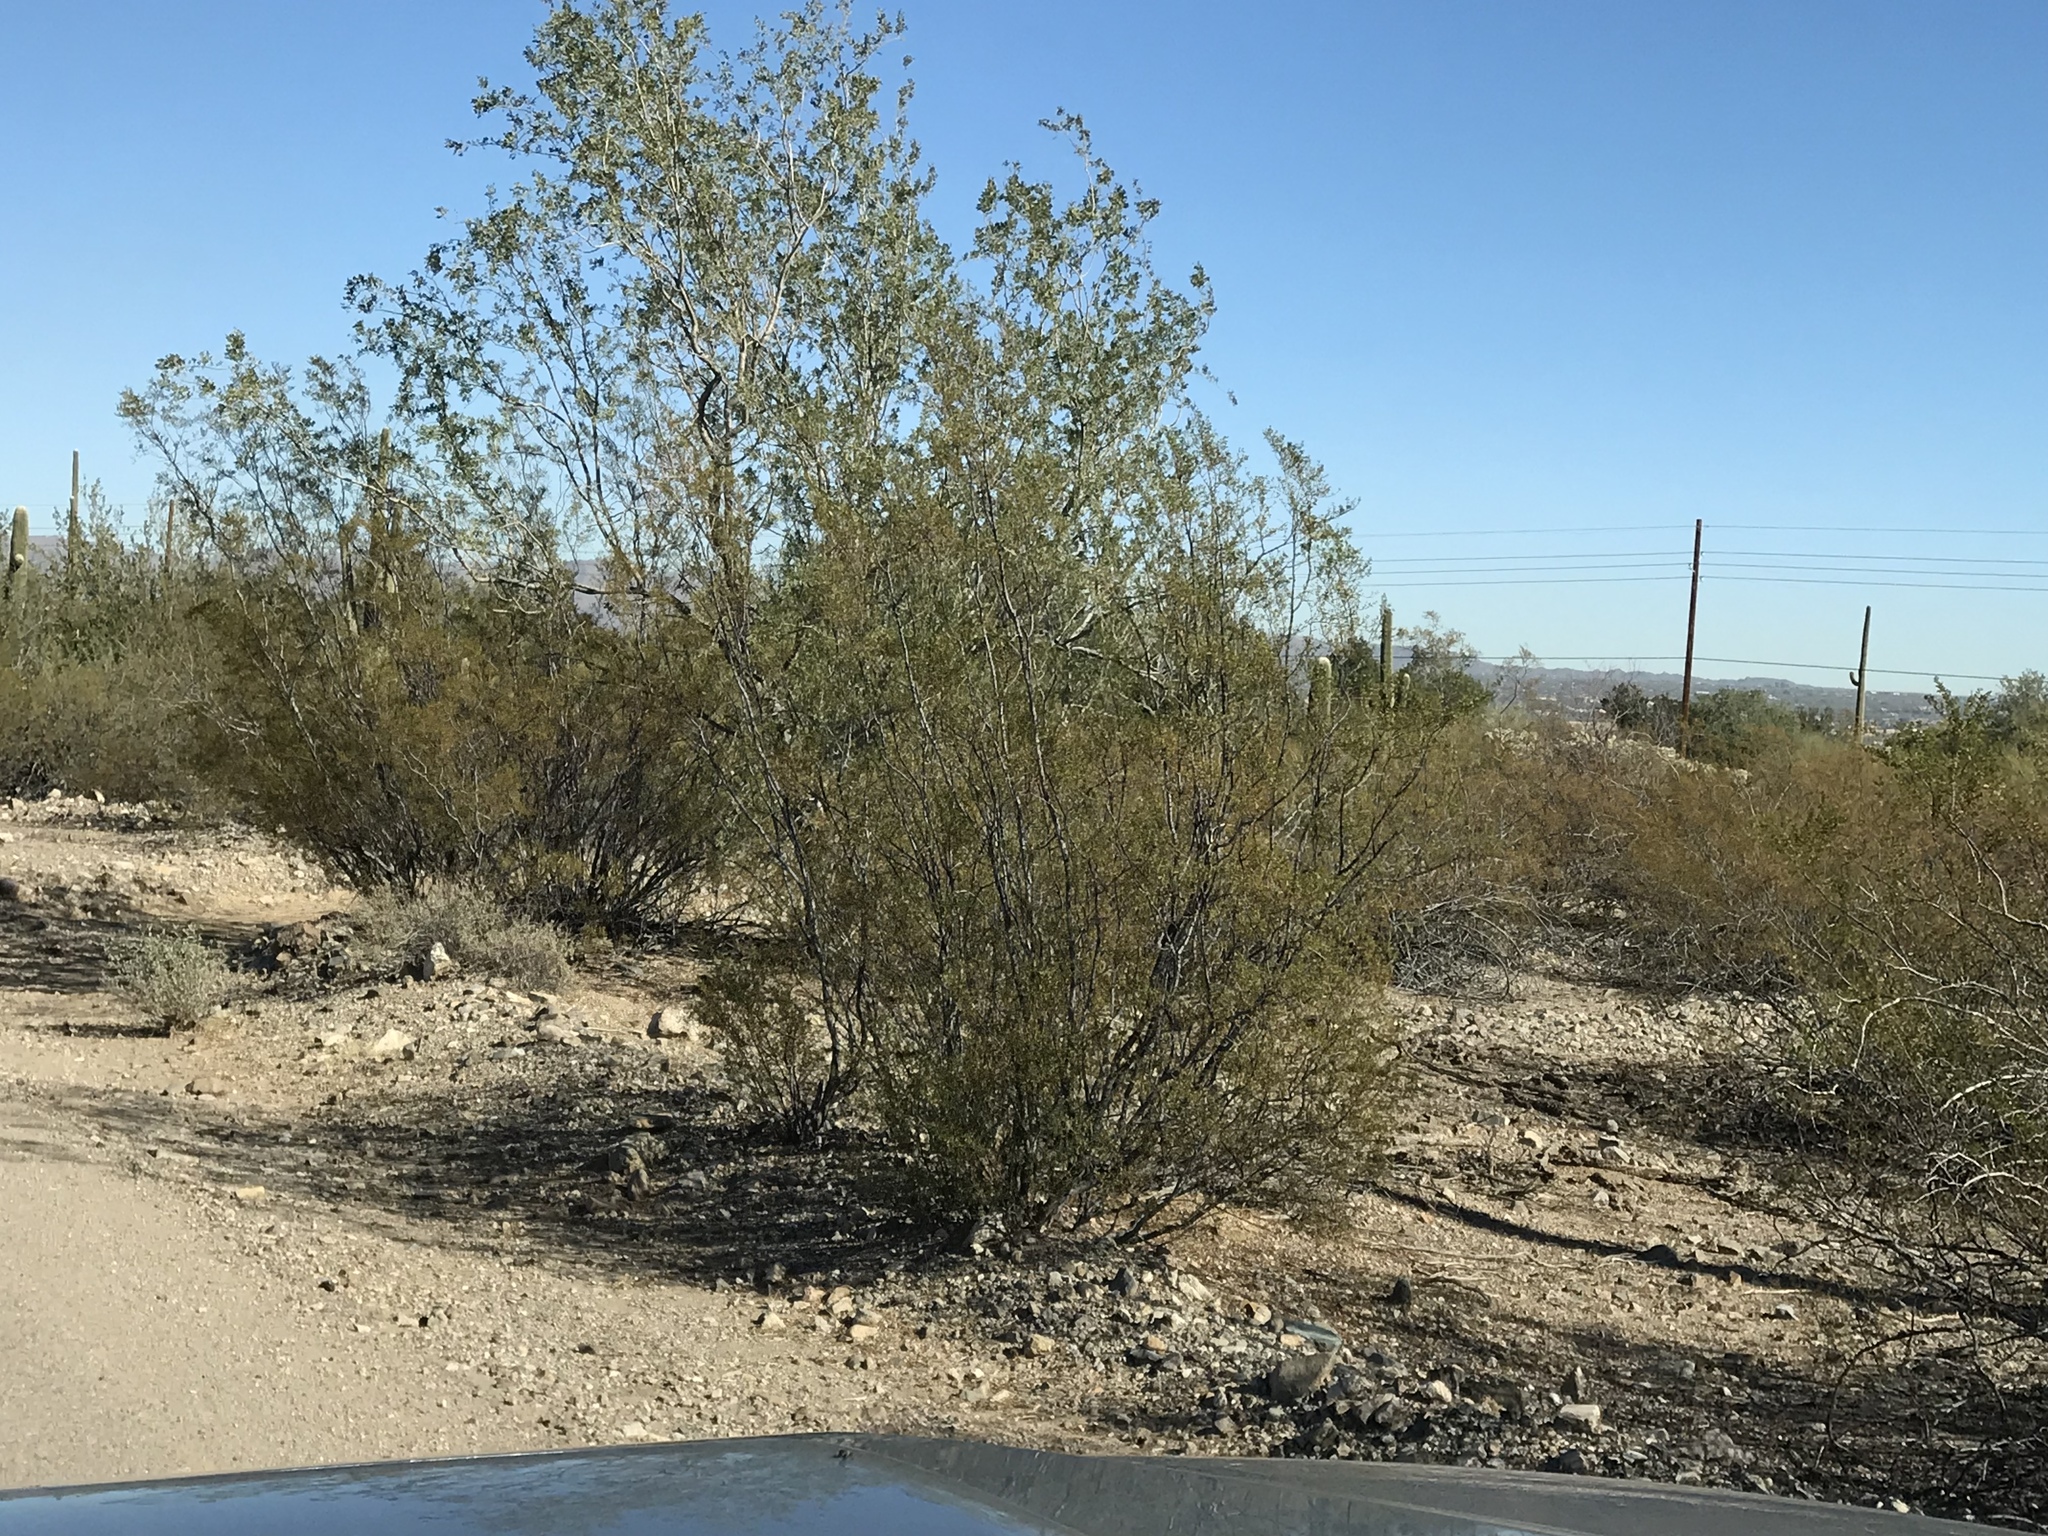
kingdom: Plantae
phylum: Tracheophyta
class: Magnoliopsida
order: Zygophyllales
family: Zygophyllaceae
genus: Larrea
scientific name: Larrea tridentata
